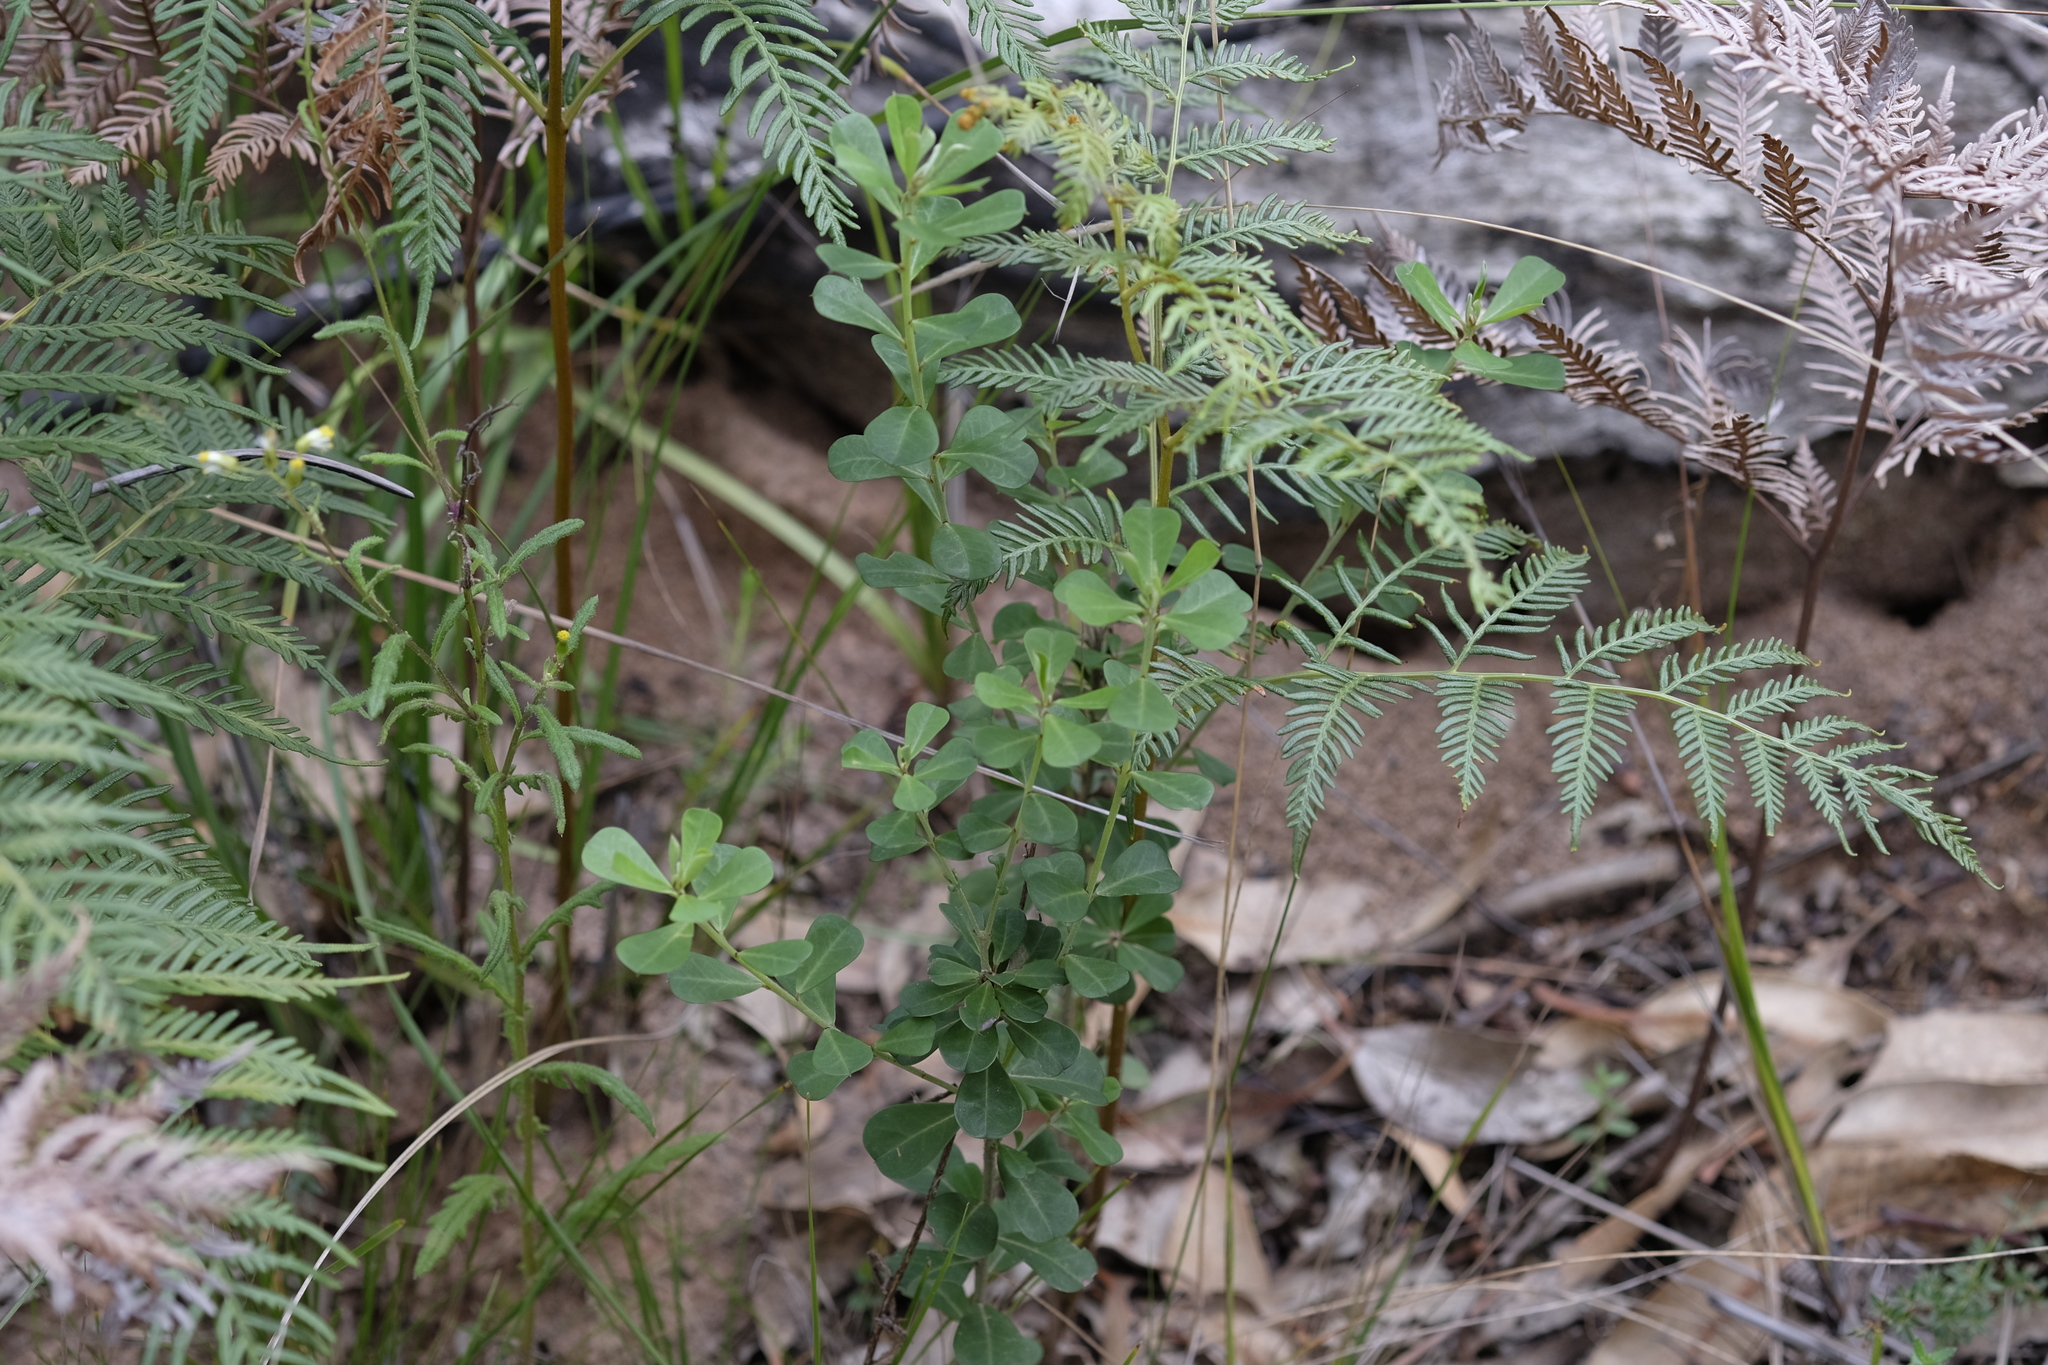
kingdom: Plantae
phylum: Tracheophyta
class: Magnoliopsida
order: Fabales
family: Fabaceae
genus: Pultenaea
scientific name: Pultenaea daphnoides
